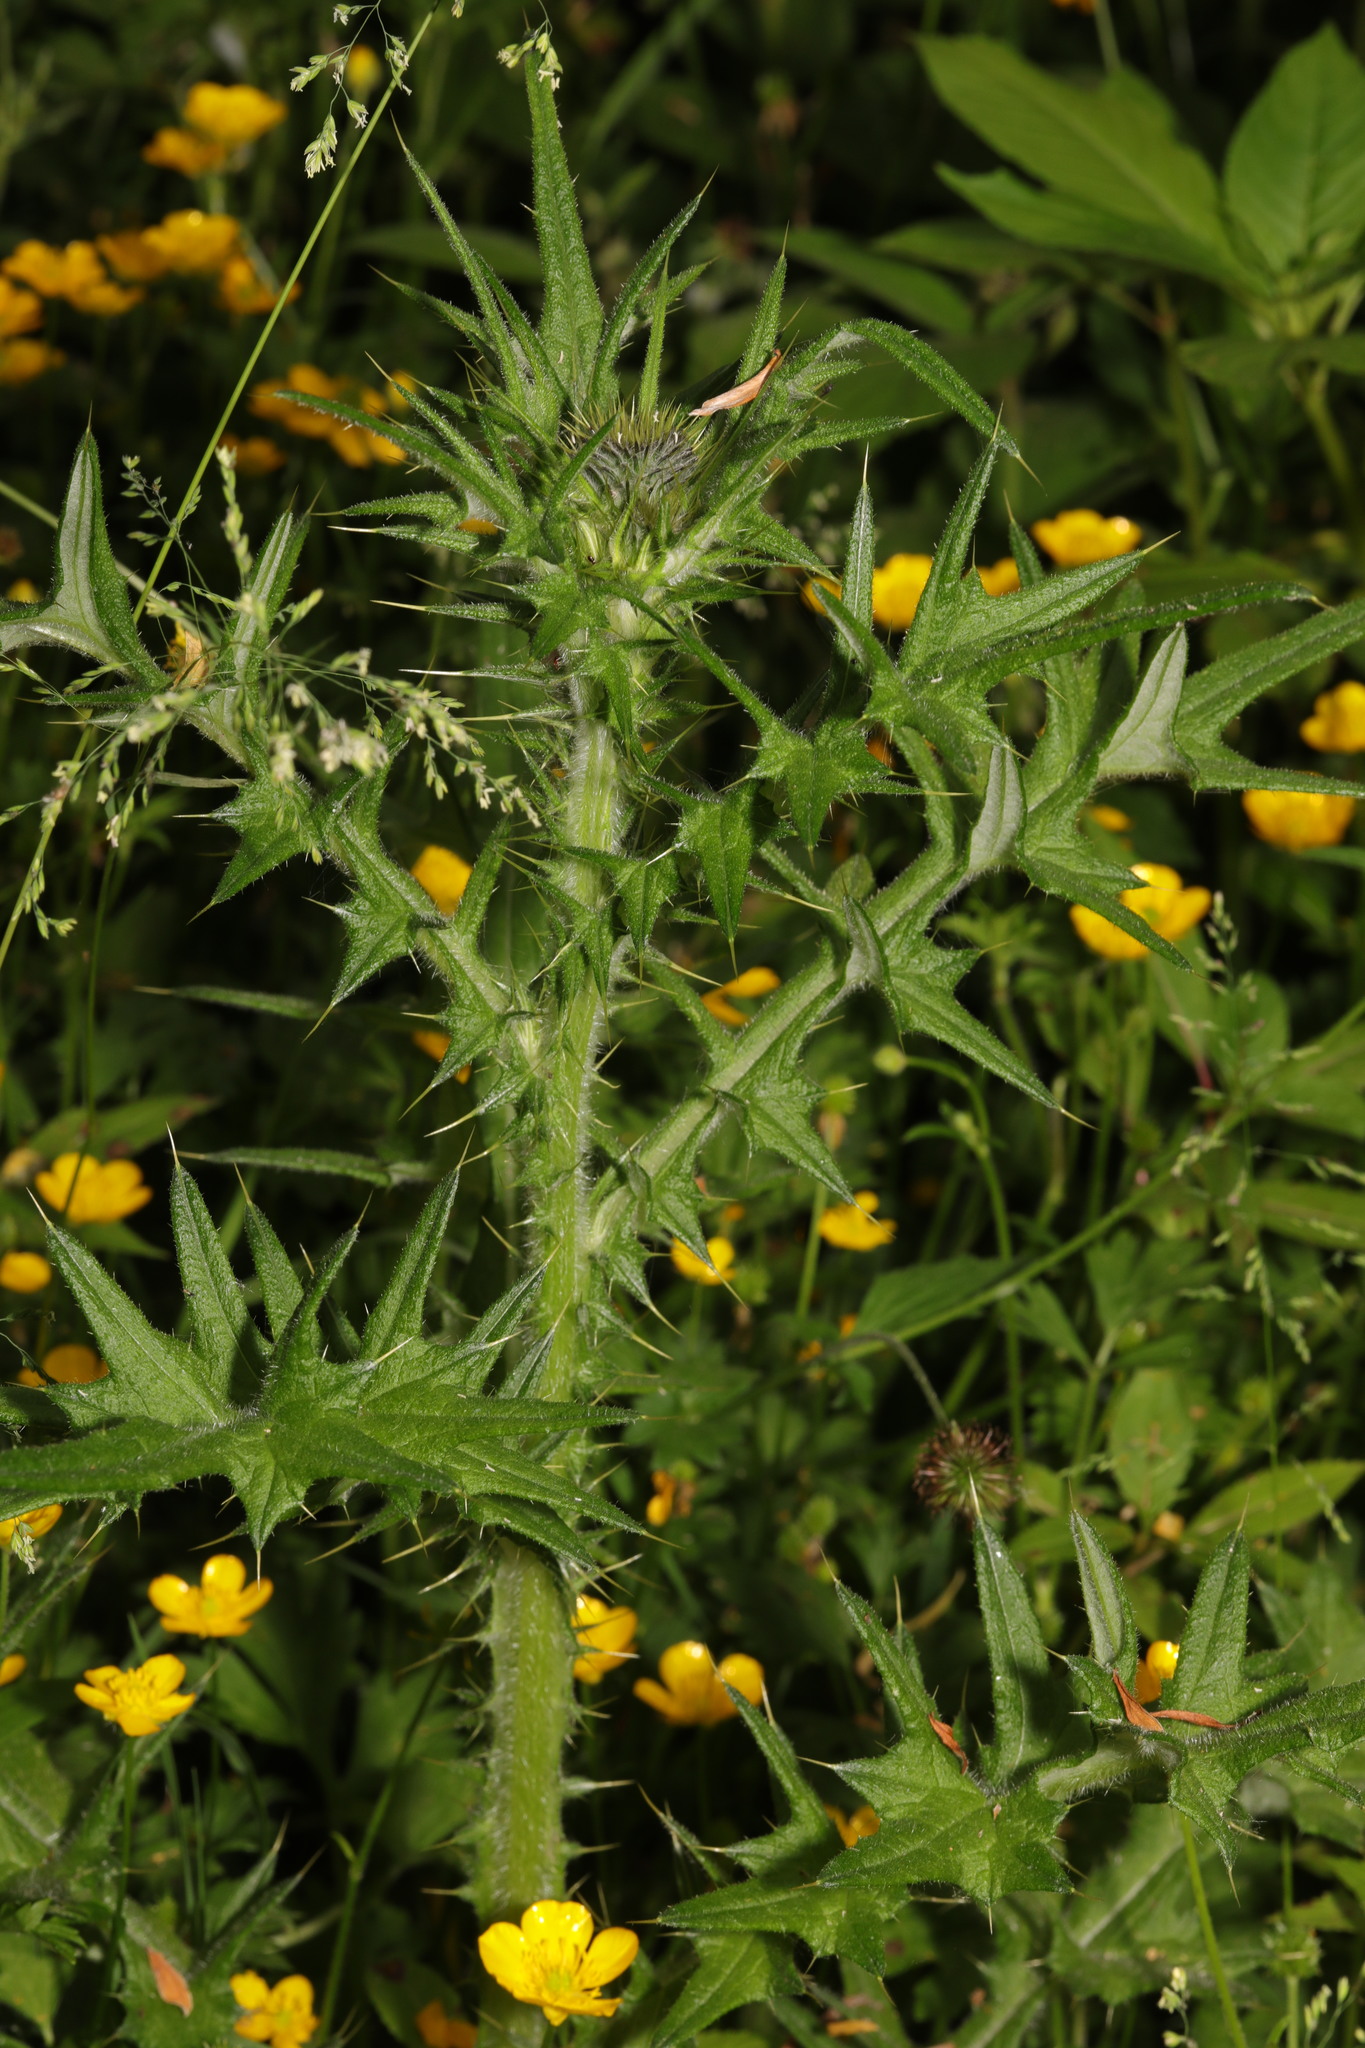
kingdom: Plantae
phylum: Tracheophyta
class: Magnoliopsida
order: Asterales
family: Asteraceae
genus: Cirsium
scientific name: Cirsium vulgare
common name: Bull thistle
